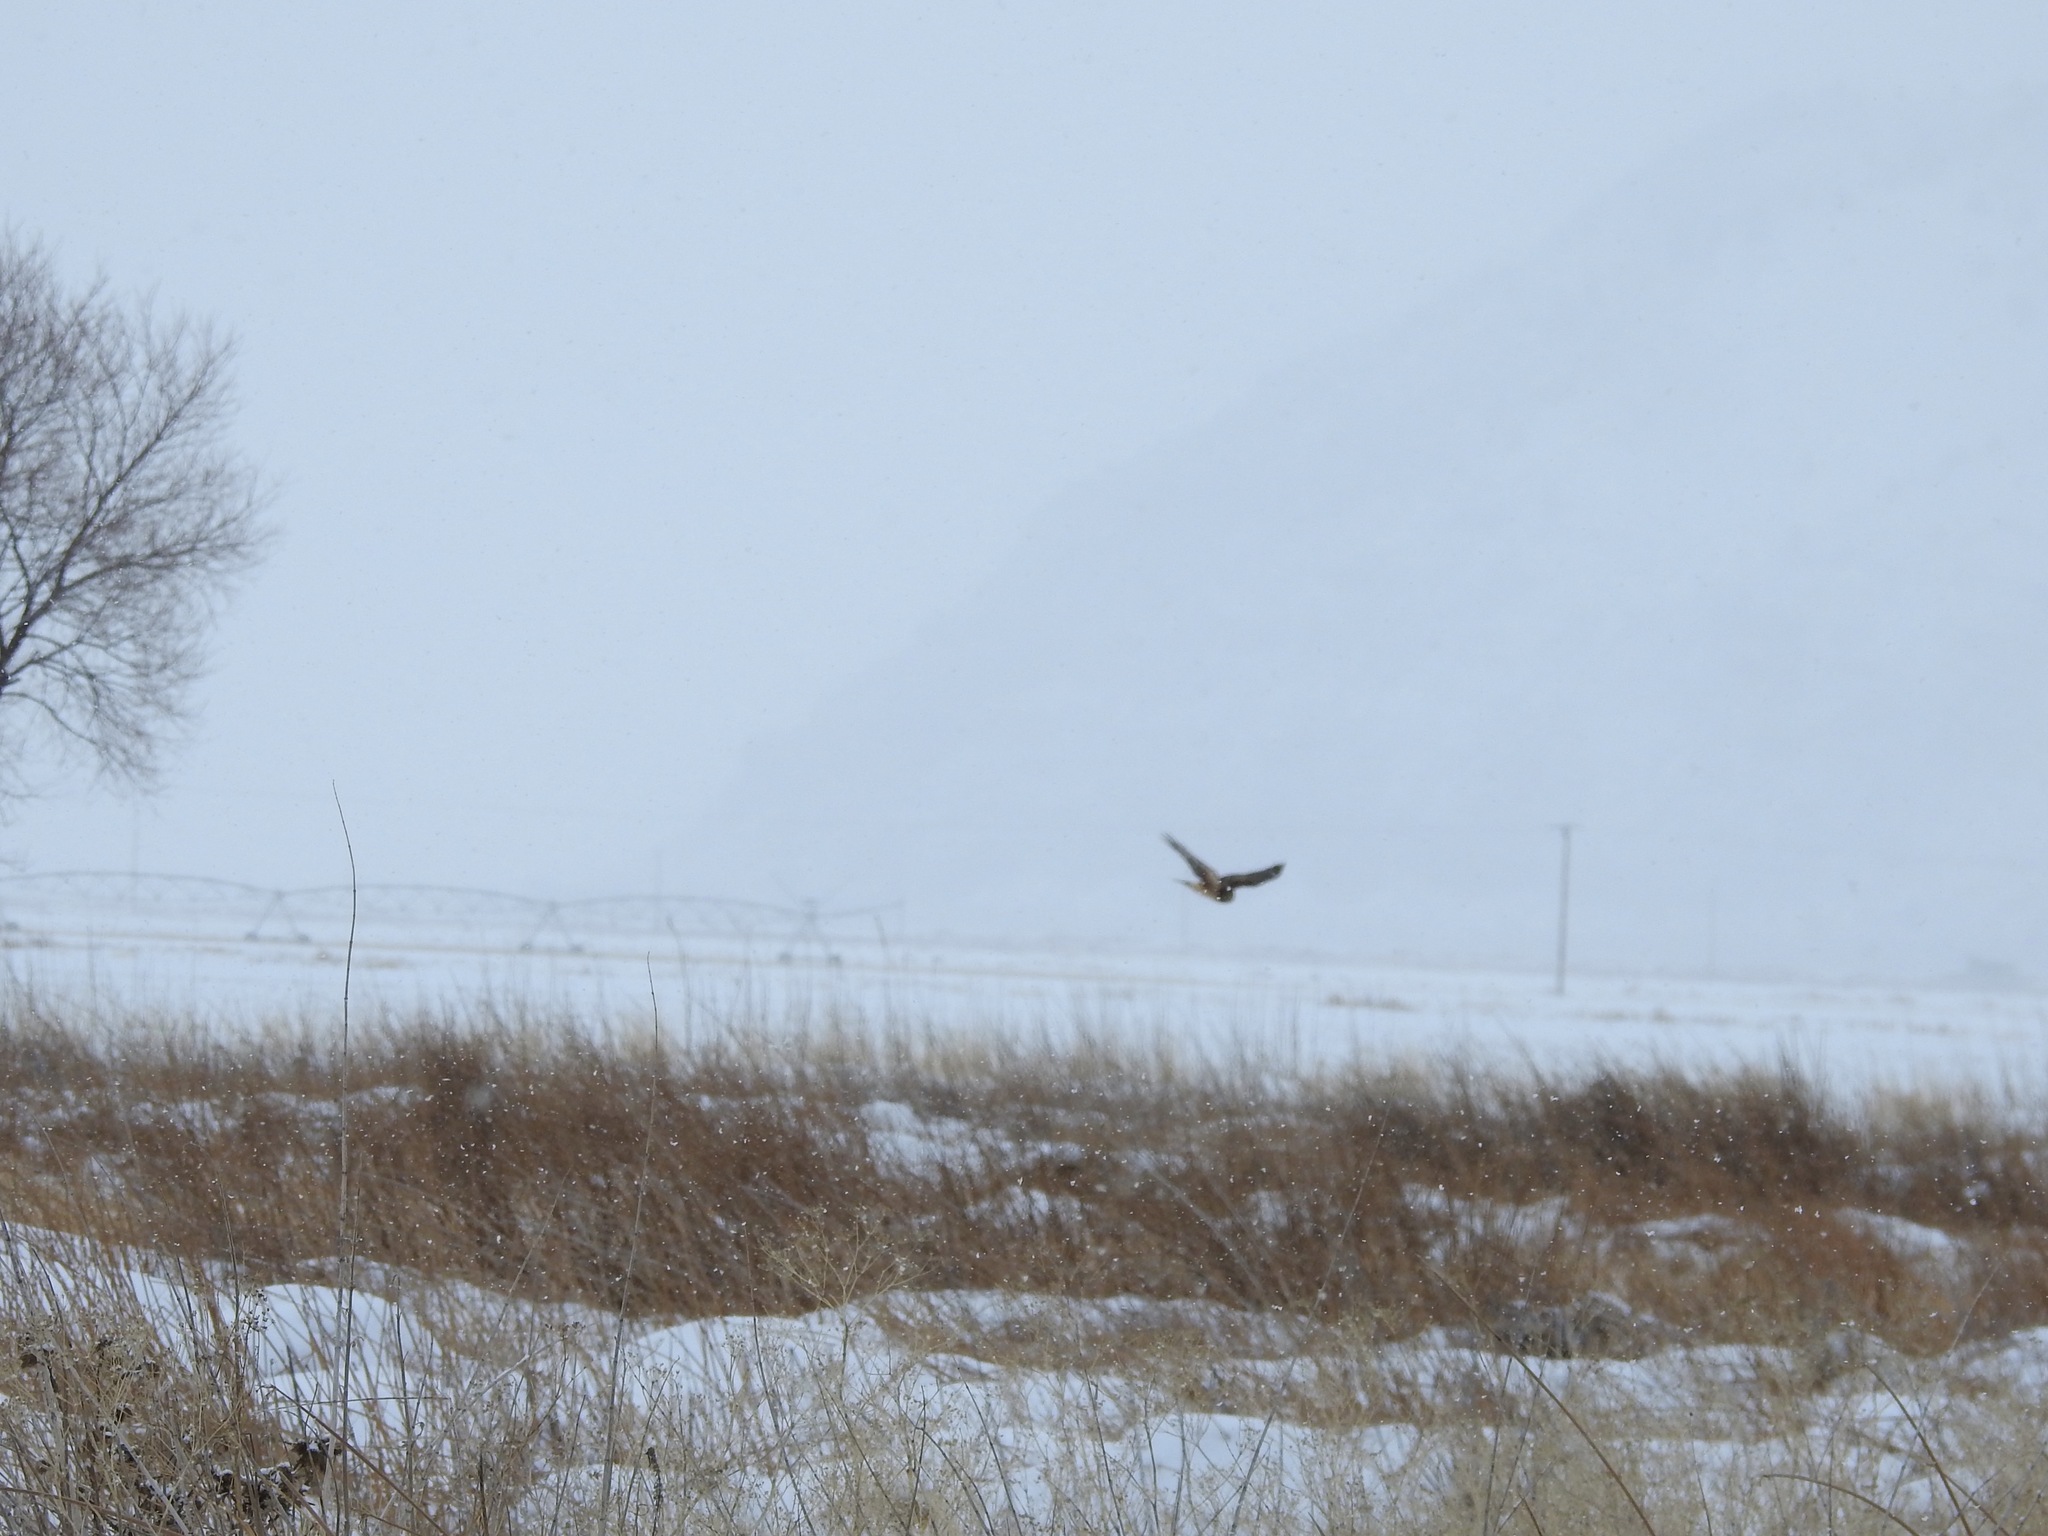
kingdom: Animalia
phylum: Chordata
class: Aves
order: Accipitriformes
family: Accipitridae
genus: Circus
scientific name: Circus cyaneus
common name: Hen harrier
